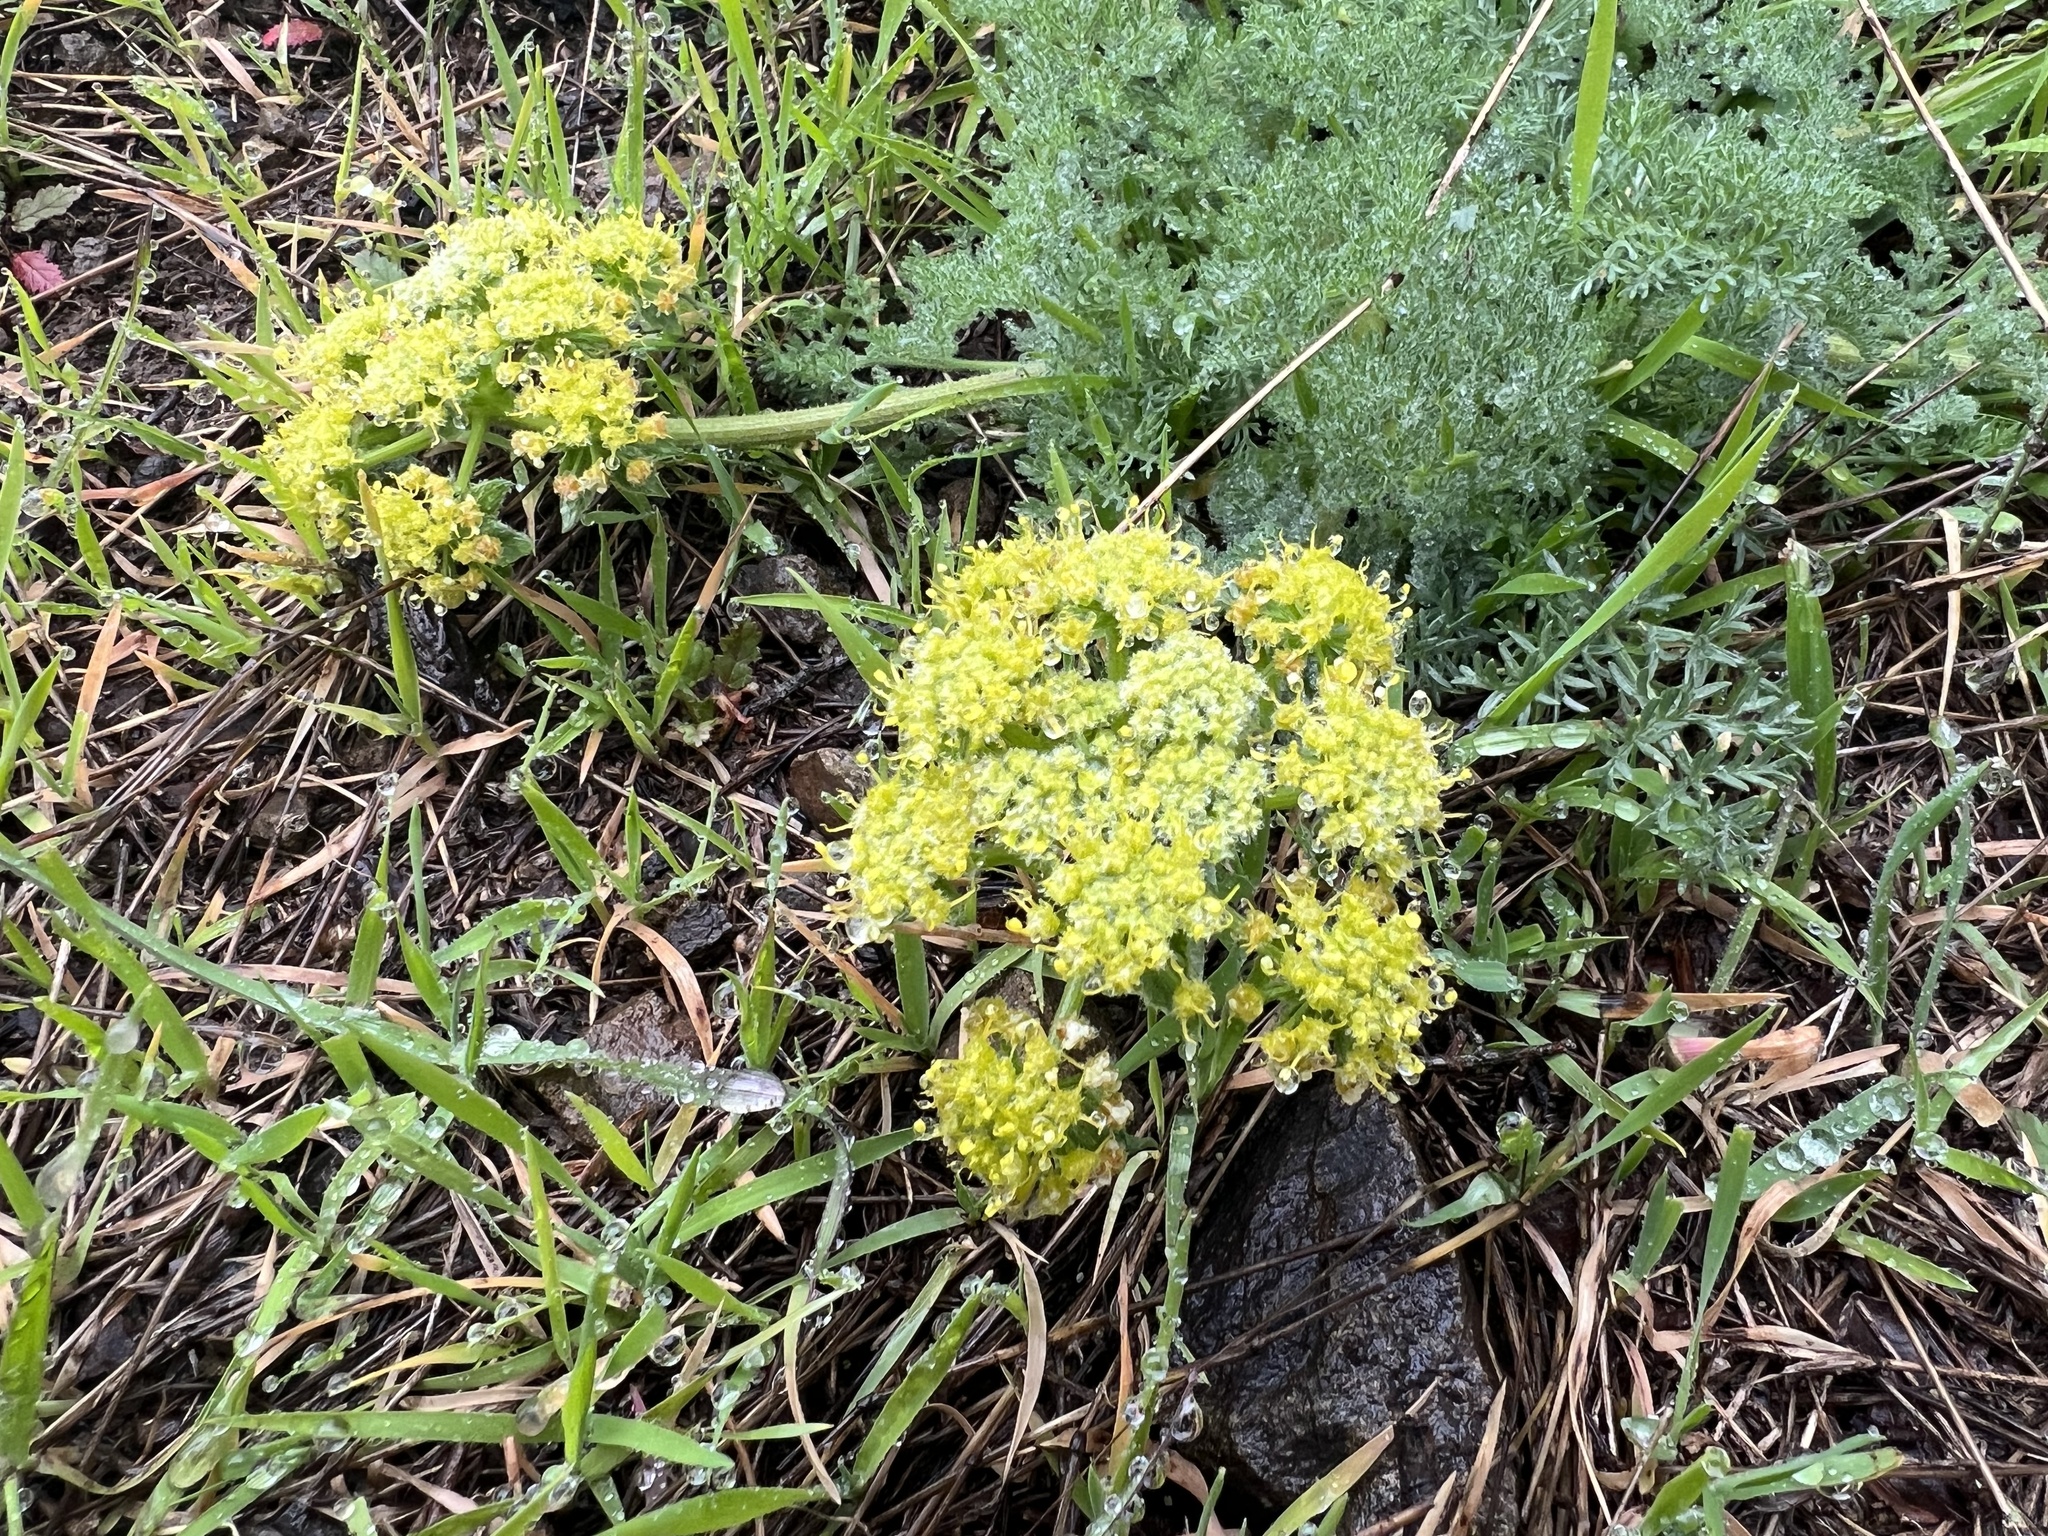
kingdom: Plantae
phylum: Tracheophyta
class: Magnoliopsida
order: Apiales
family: Apiaceae
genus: Lomatium
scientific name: Lomatium dasycarpum
